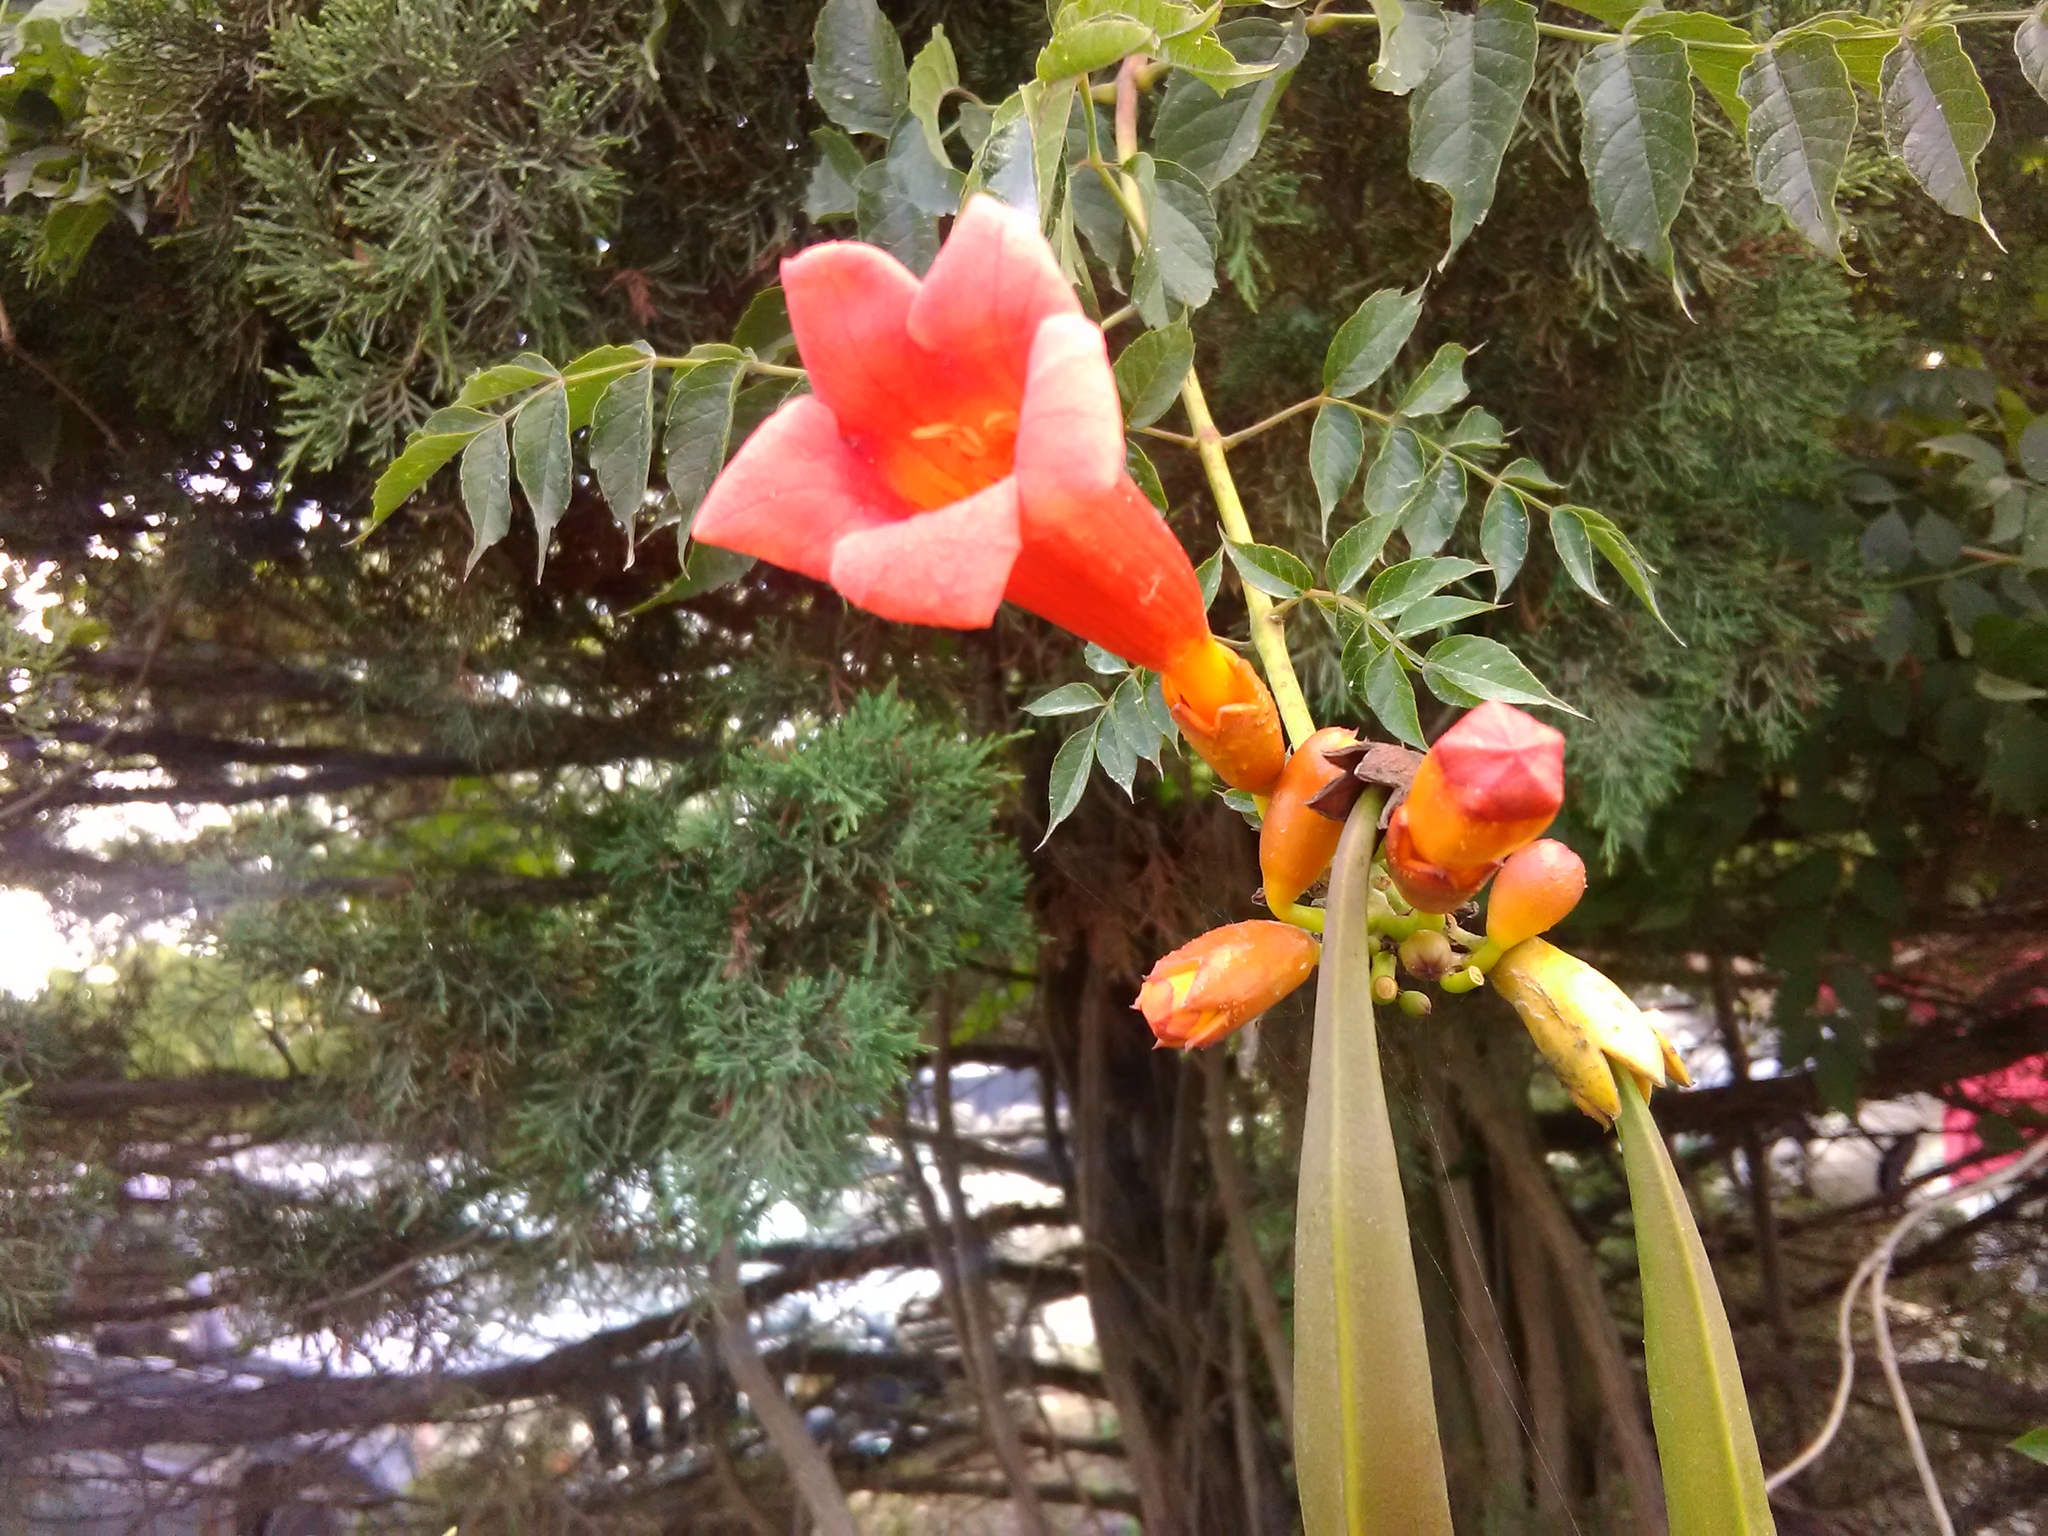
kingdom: Plantae
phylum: Tracheophyta
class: Magnoliopsida
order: Lamiales
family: Bignoniaceae
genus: Campsis
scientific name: Campsis radicans
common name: Trumpet-creeper
